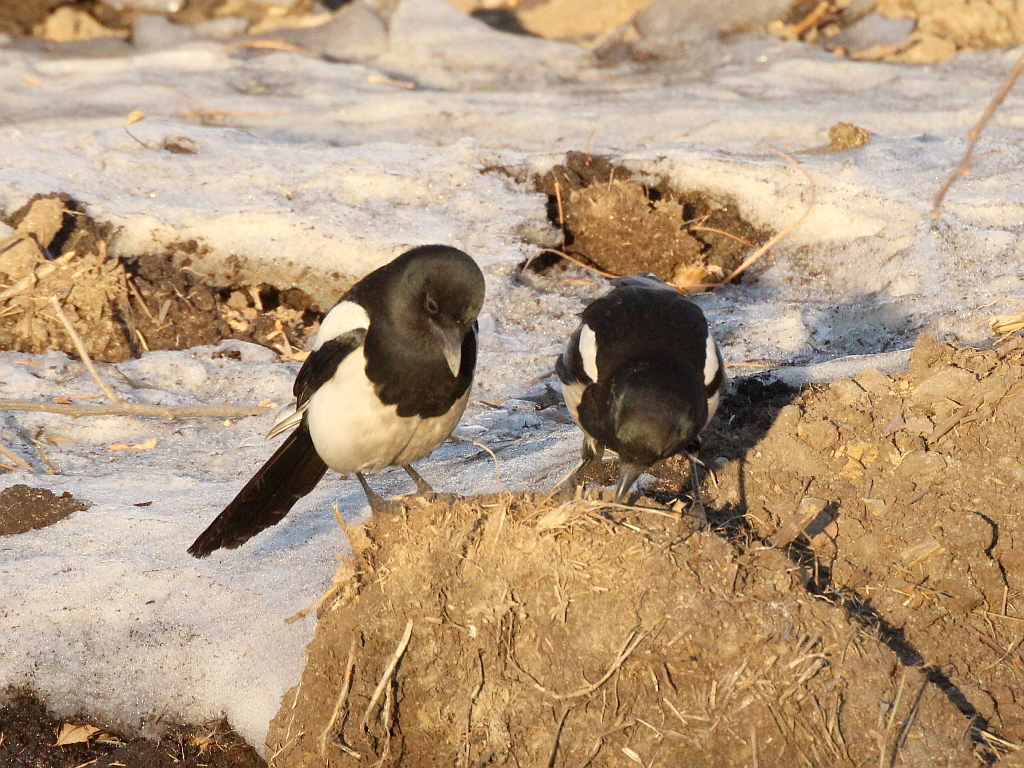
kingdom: Animalia
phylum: Chordata
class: Aves
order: Passeriformes
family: Corvidae
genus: Pica
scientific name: Pica serica
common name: Oriental magpie
